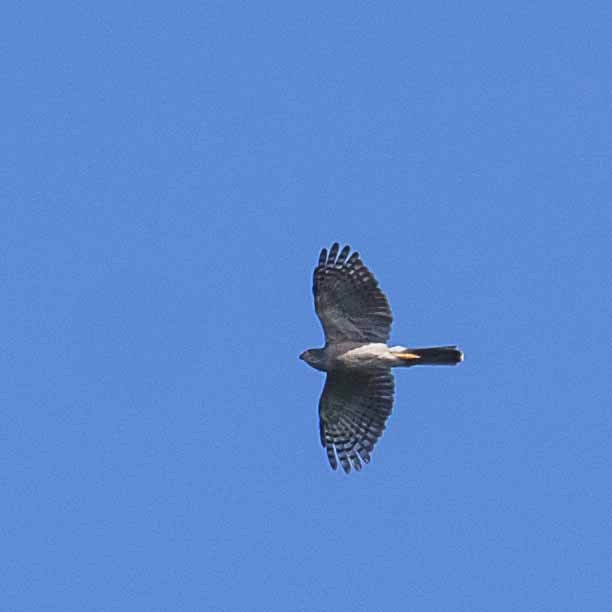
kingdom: Animalia
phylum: Chordata
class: Aves
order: Accipitriformes
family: Accipitridae
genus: Accipiter
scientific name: Accipiter tachiro
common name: African goshawk
